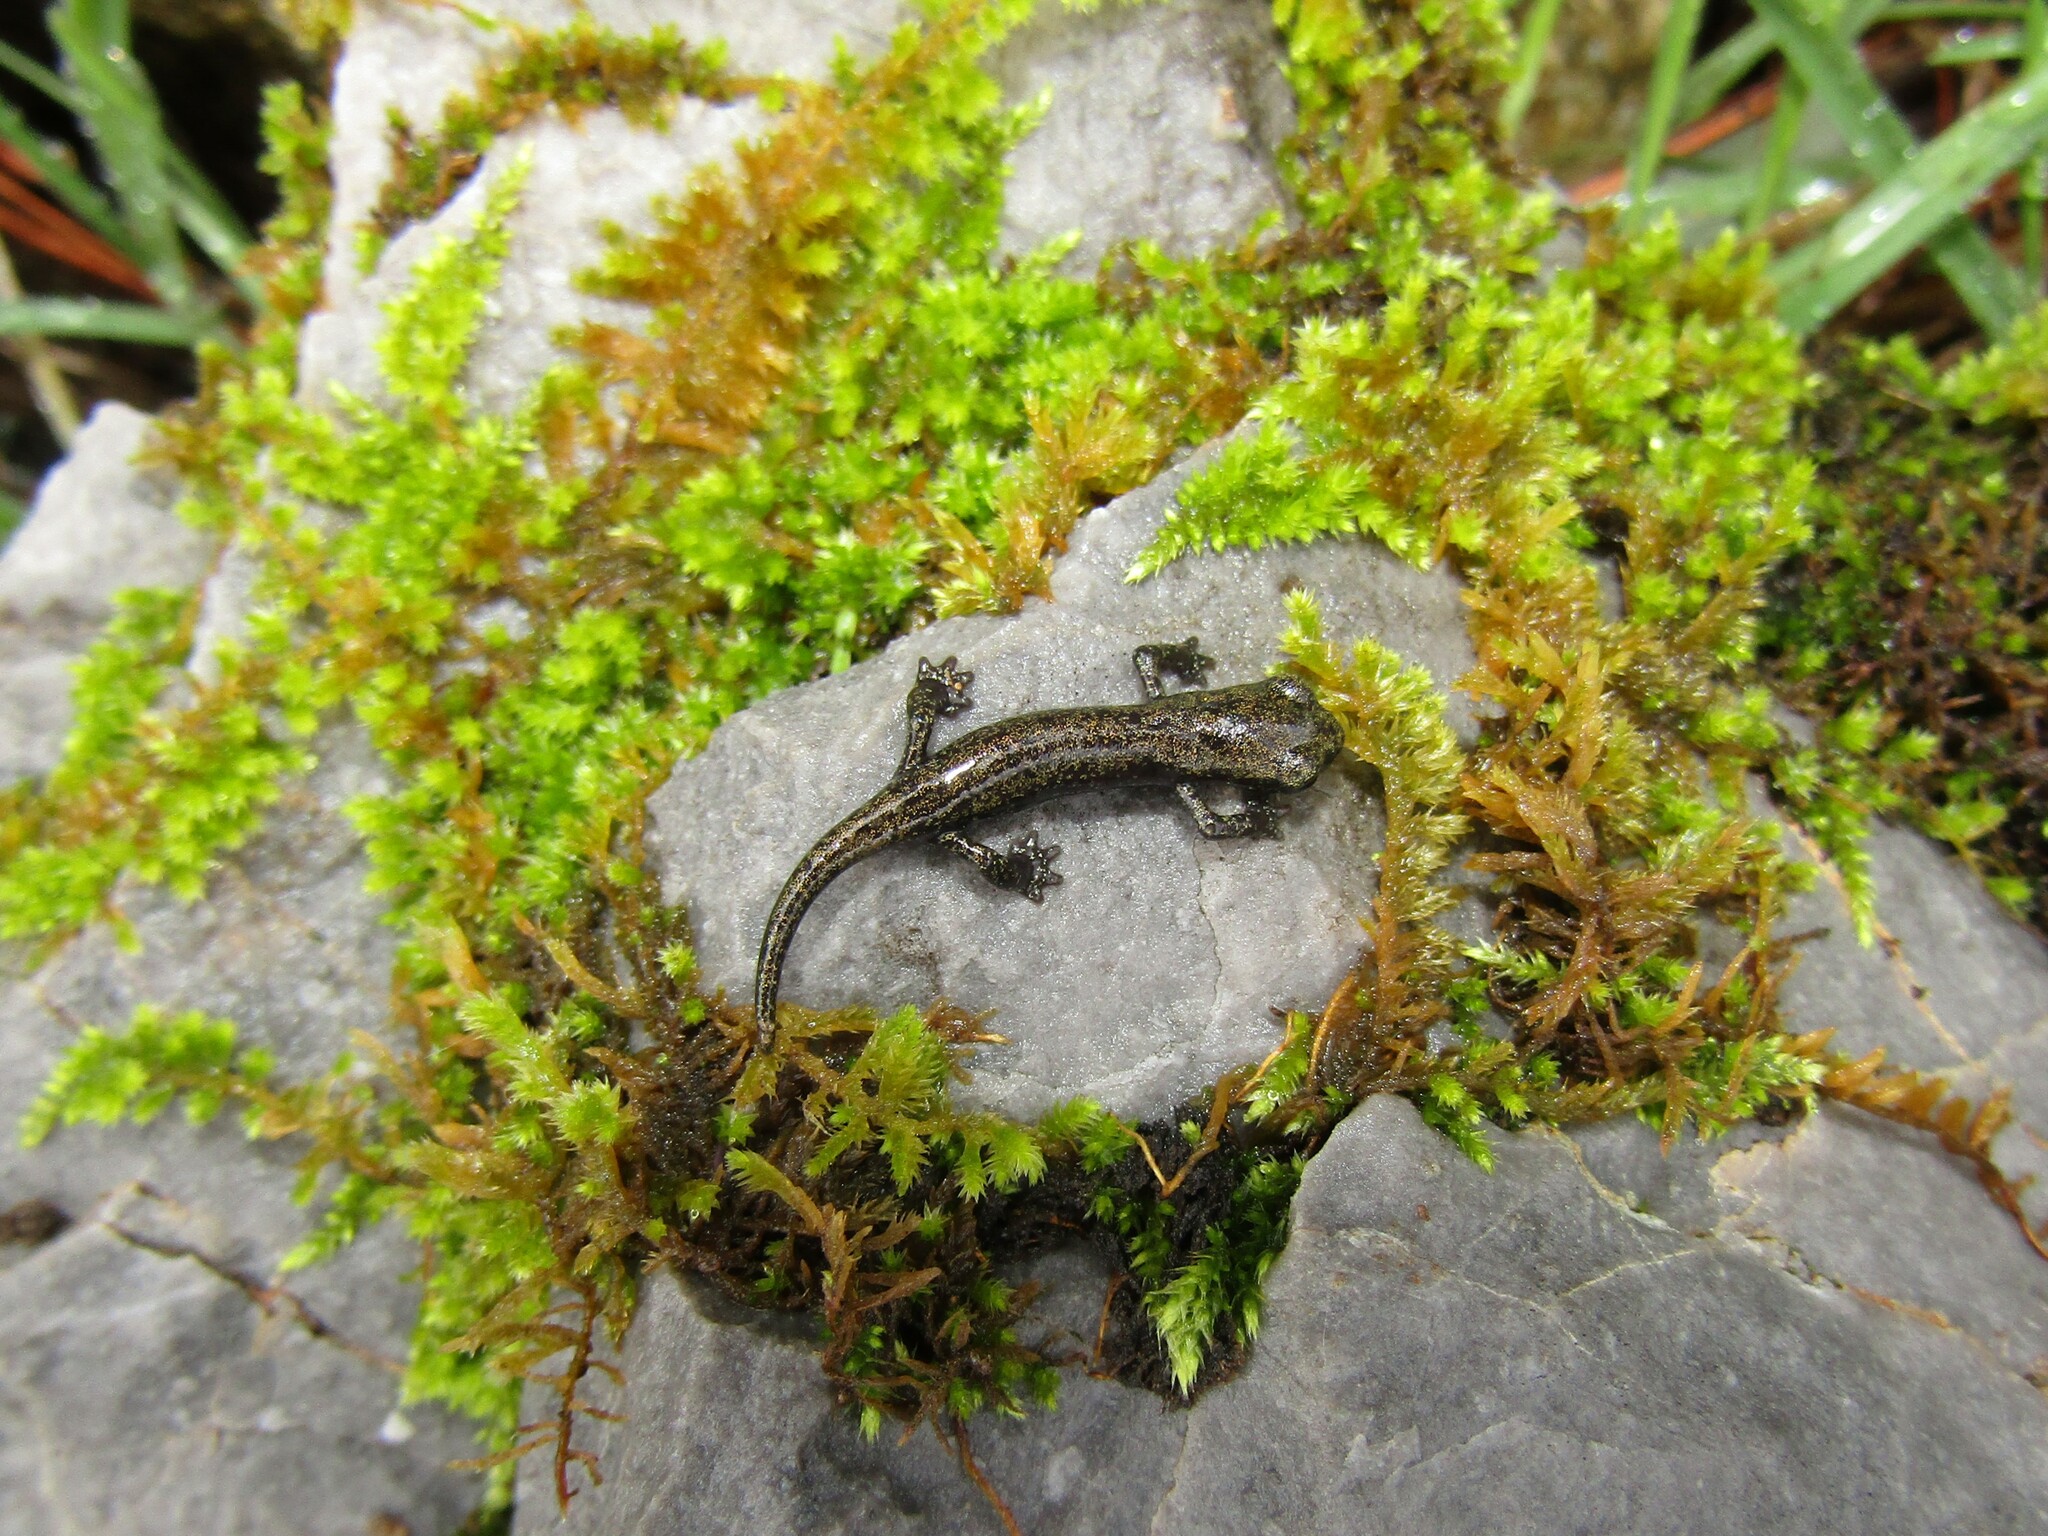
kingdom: Animalia
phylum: Chordata
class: Amphibia
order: Caudata
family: Plethodontidae
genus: Hydromantes
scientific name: Hydromantes samweli
